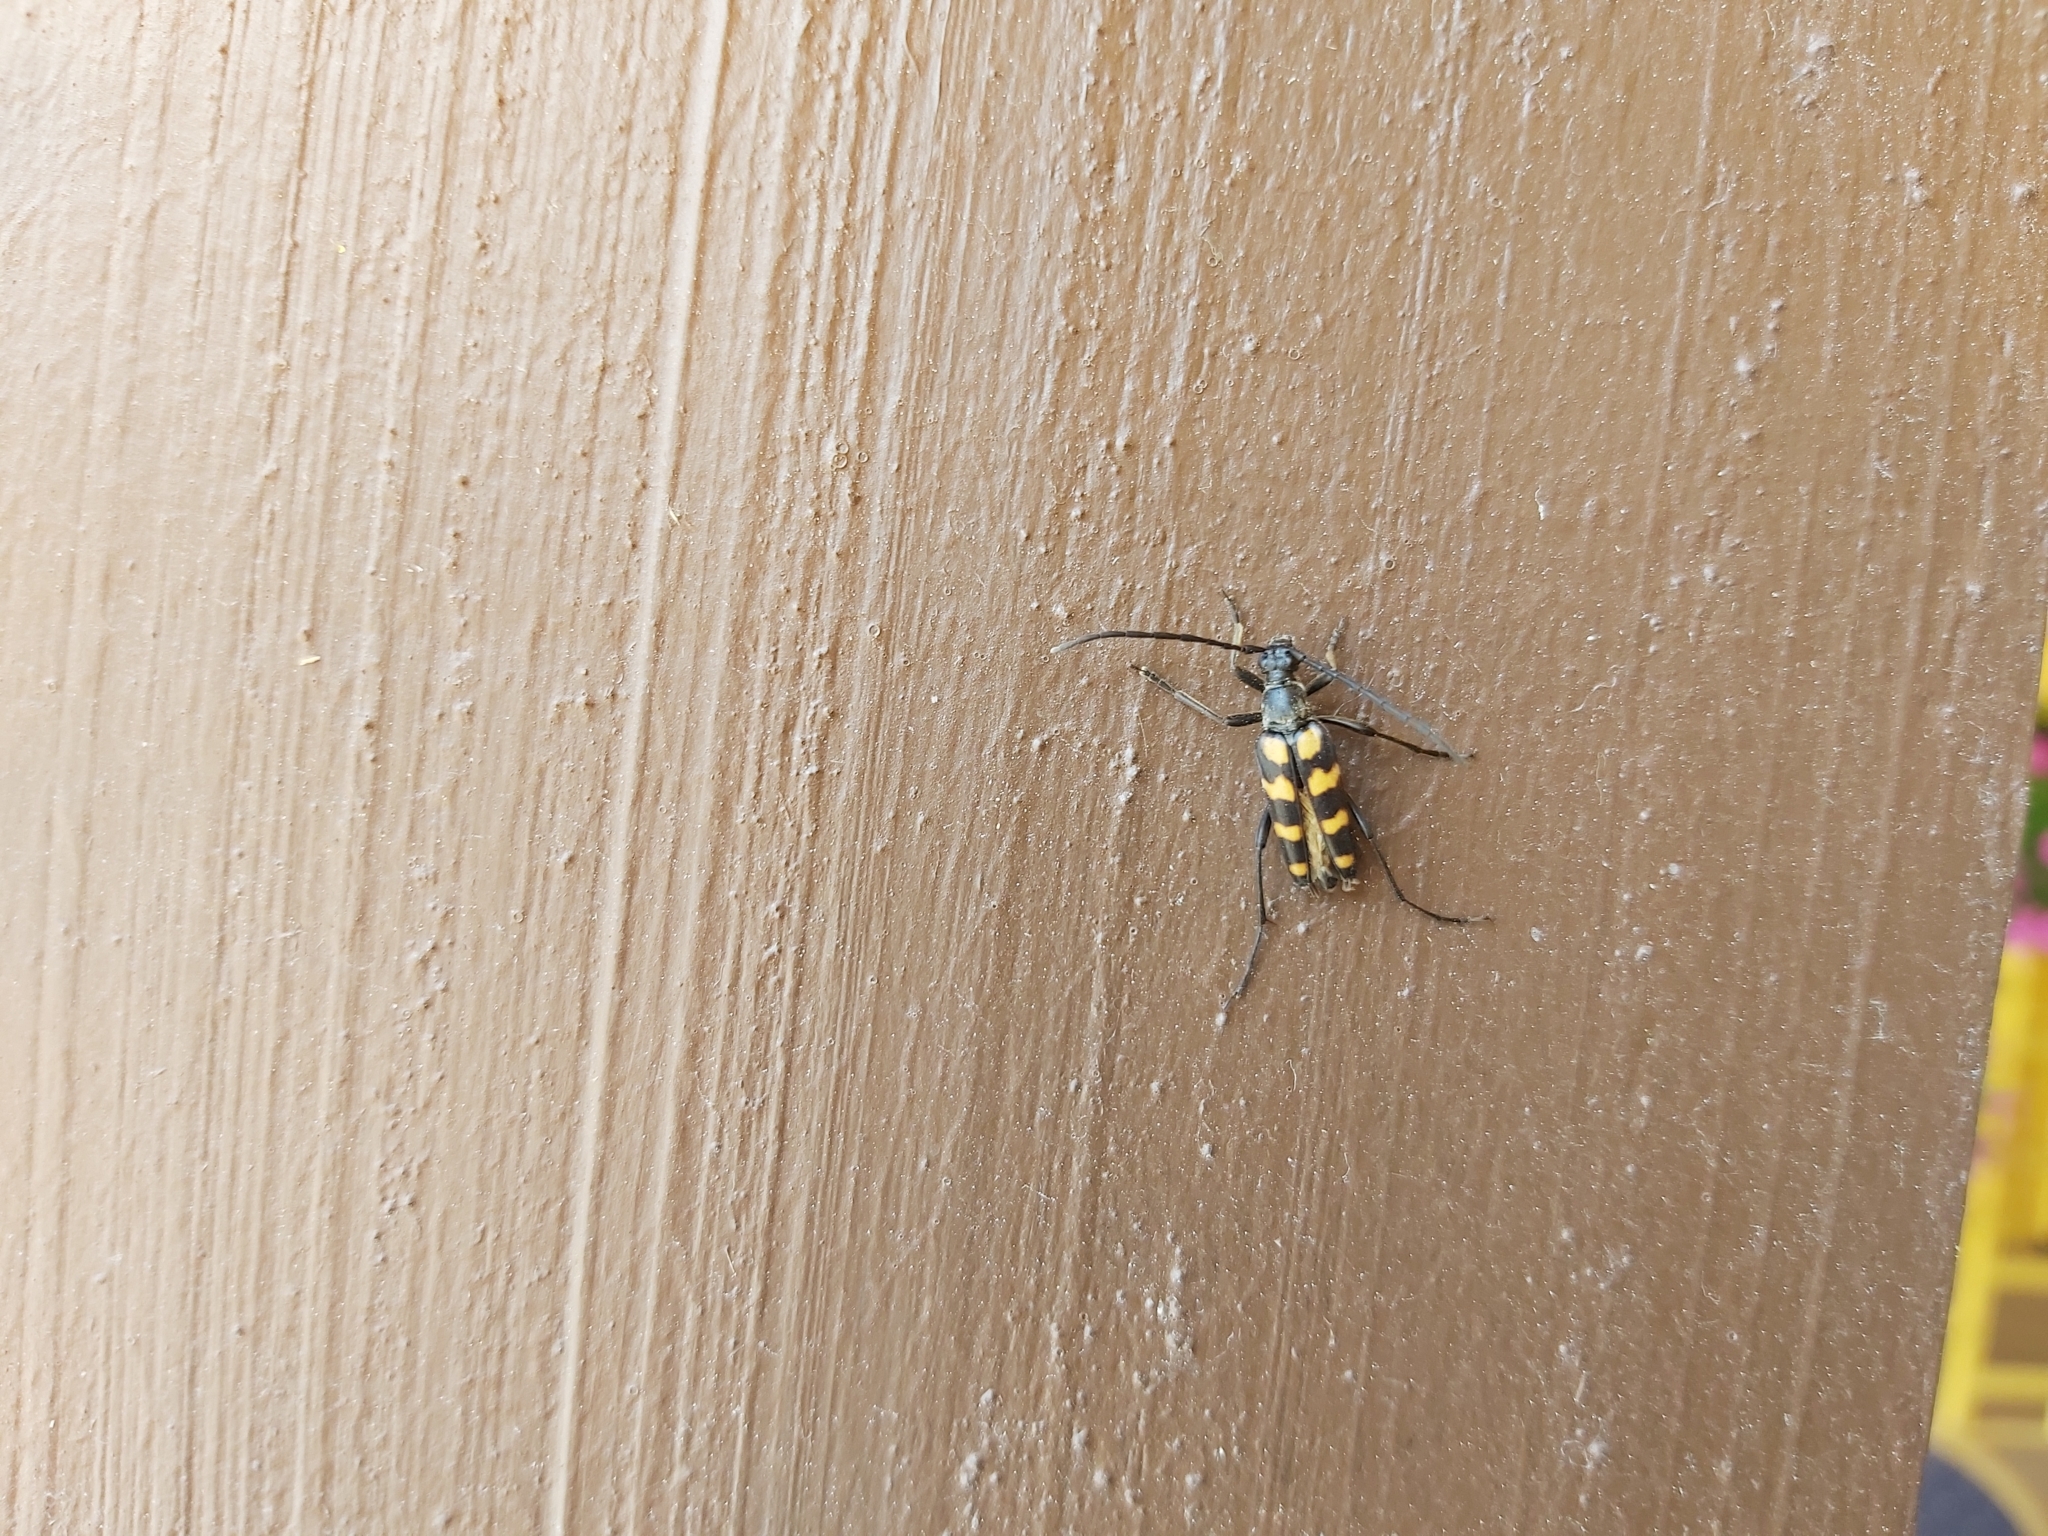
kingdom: Animalia
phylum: Arthropoda
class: Insecta
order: Coleoptera
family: Cerambycidae
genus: Leptura
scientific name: Leptura quadrifasciata
